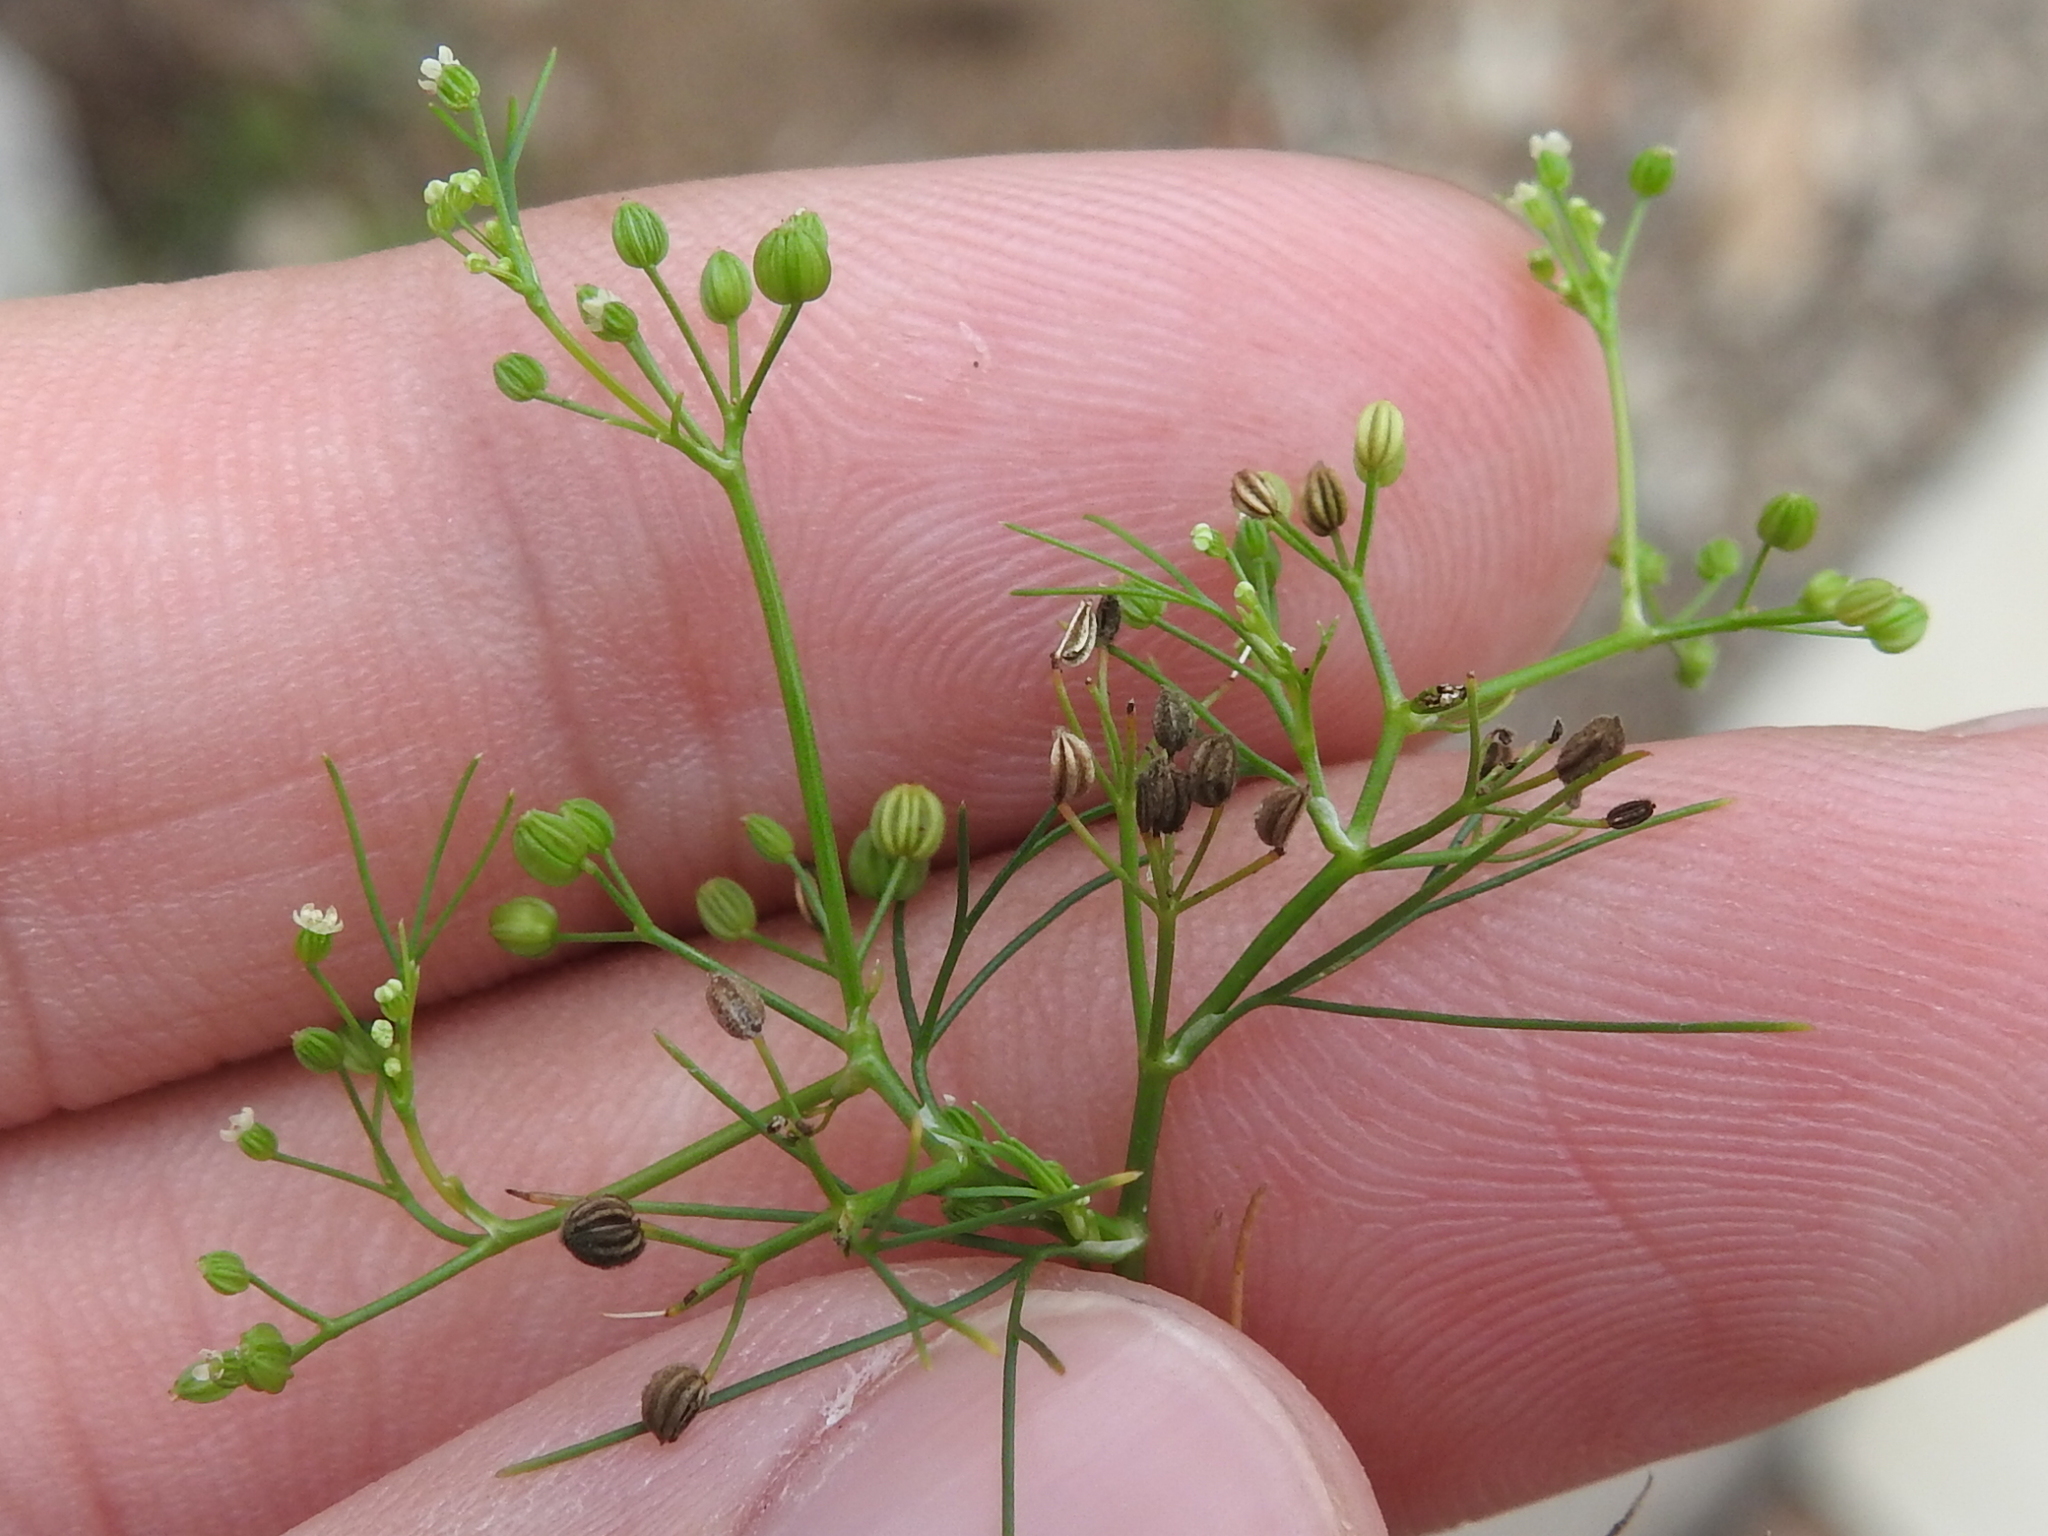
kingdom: Plantae
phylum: Tracheophyta
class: Magnoliopsida
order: Apiales
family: Apiaceae
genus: Cyclospermum
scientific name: Cyclospermum leptophyllum
